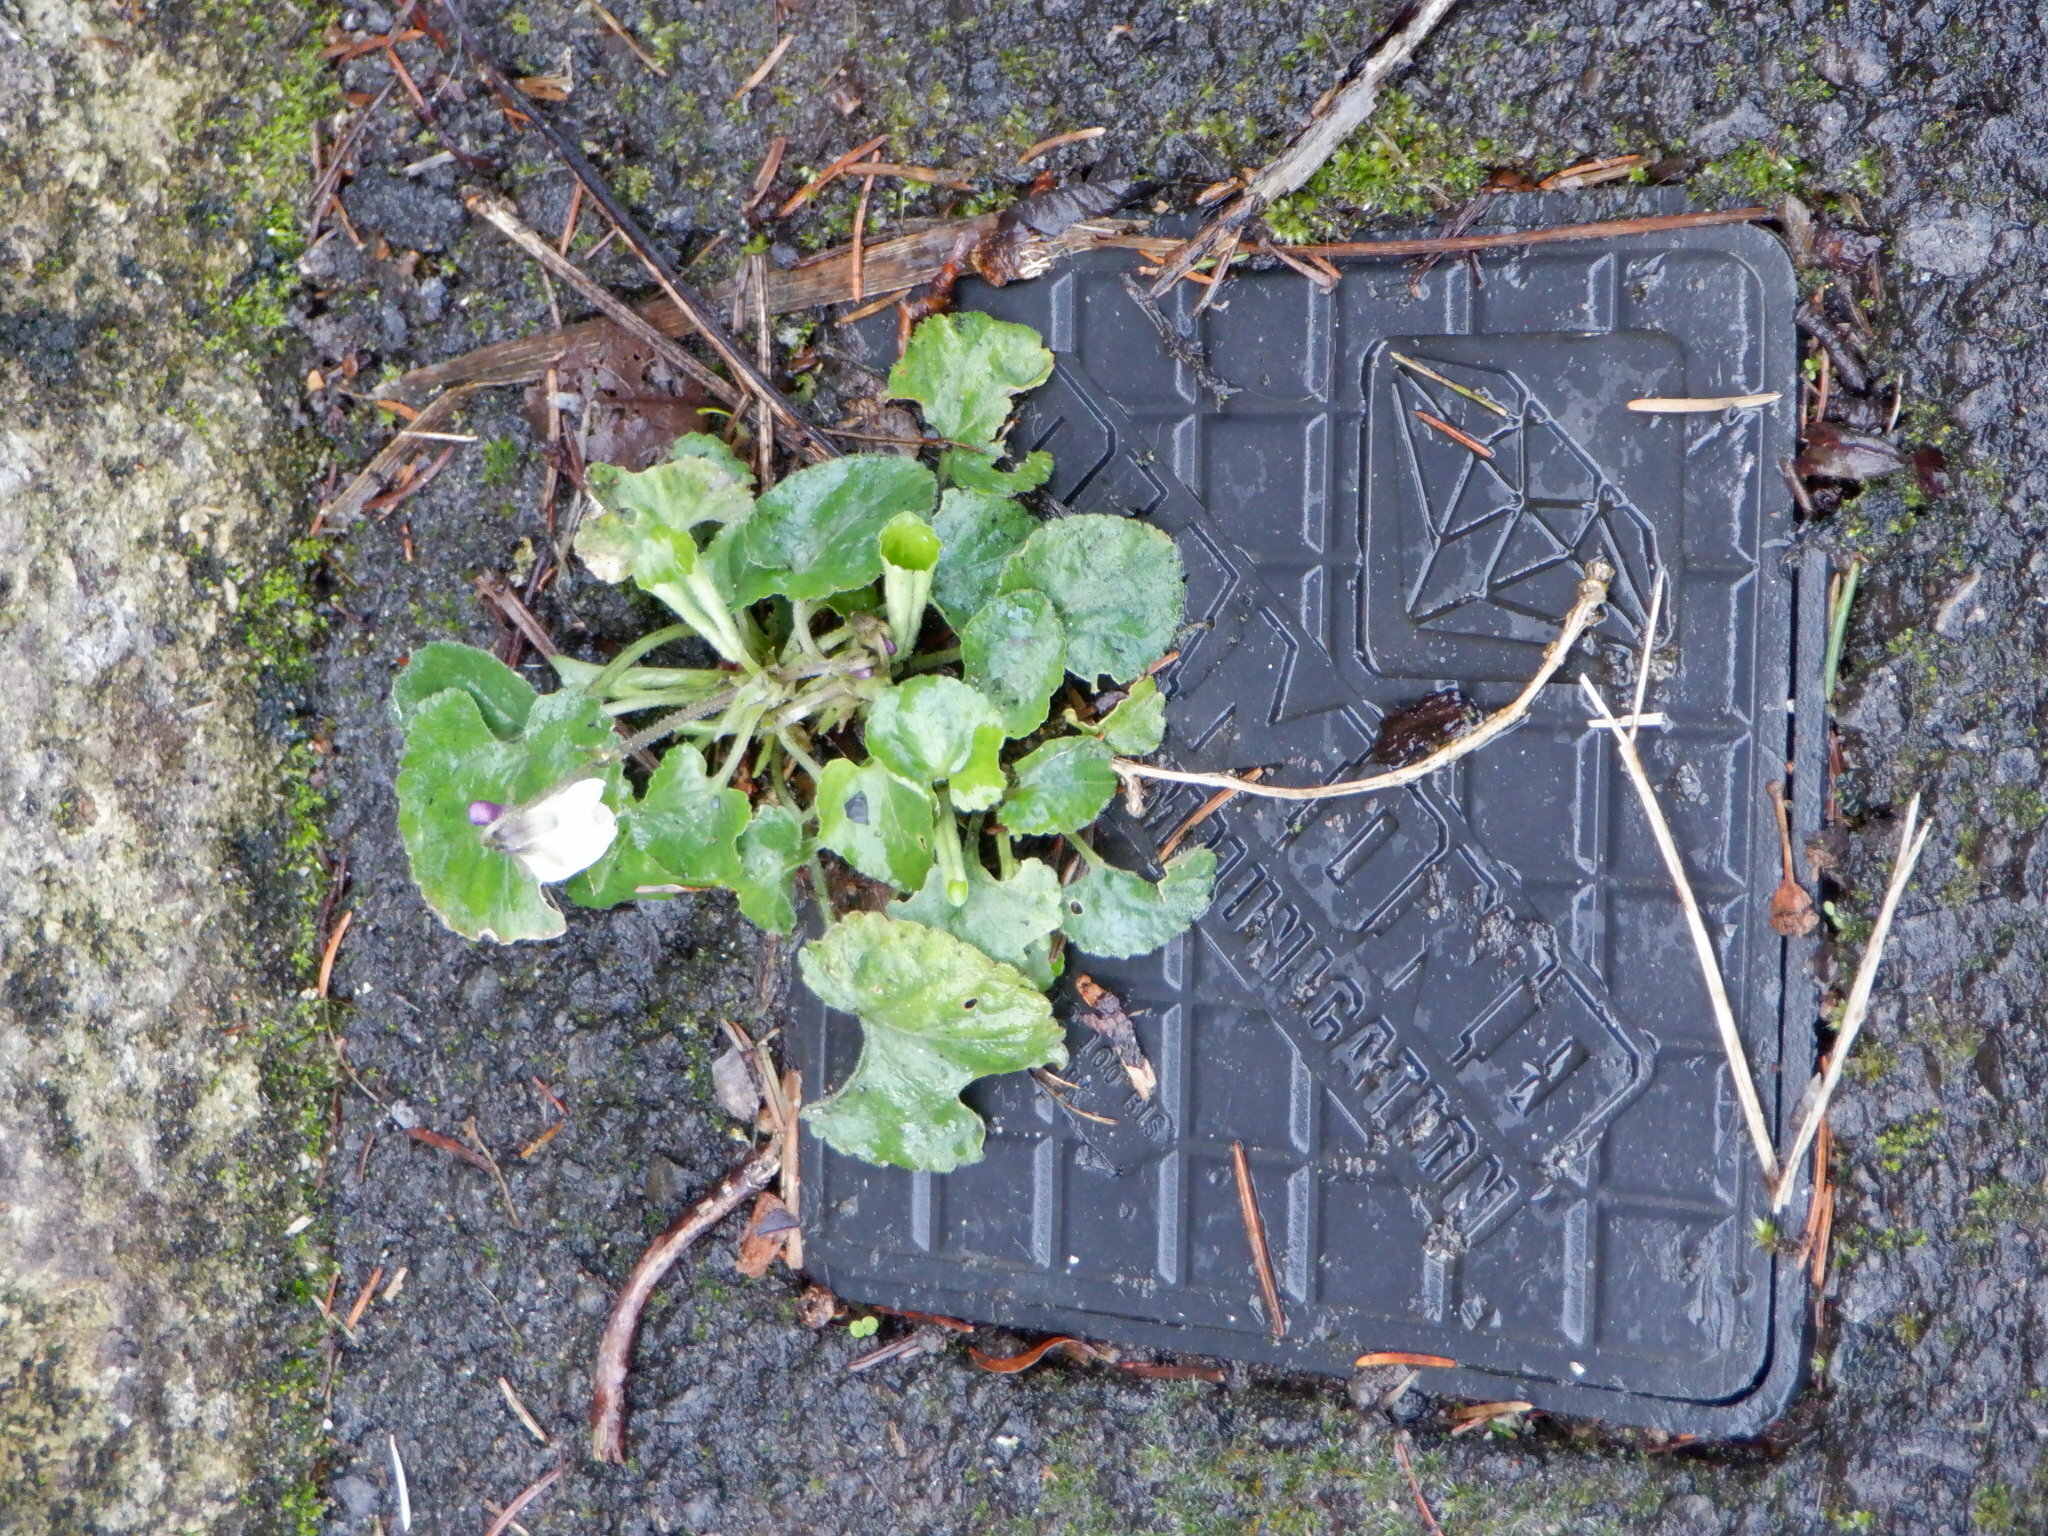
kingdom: Plantae
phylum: Tracheophyta
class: Magnoliopsida
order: Malpighiales
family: Violaceae
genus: Viola
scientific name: Viola odorata
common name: Sweet violet
